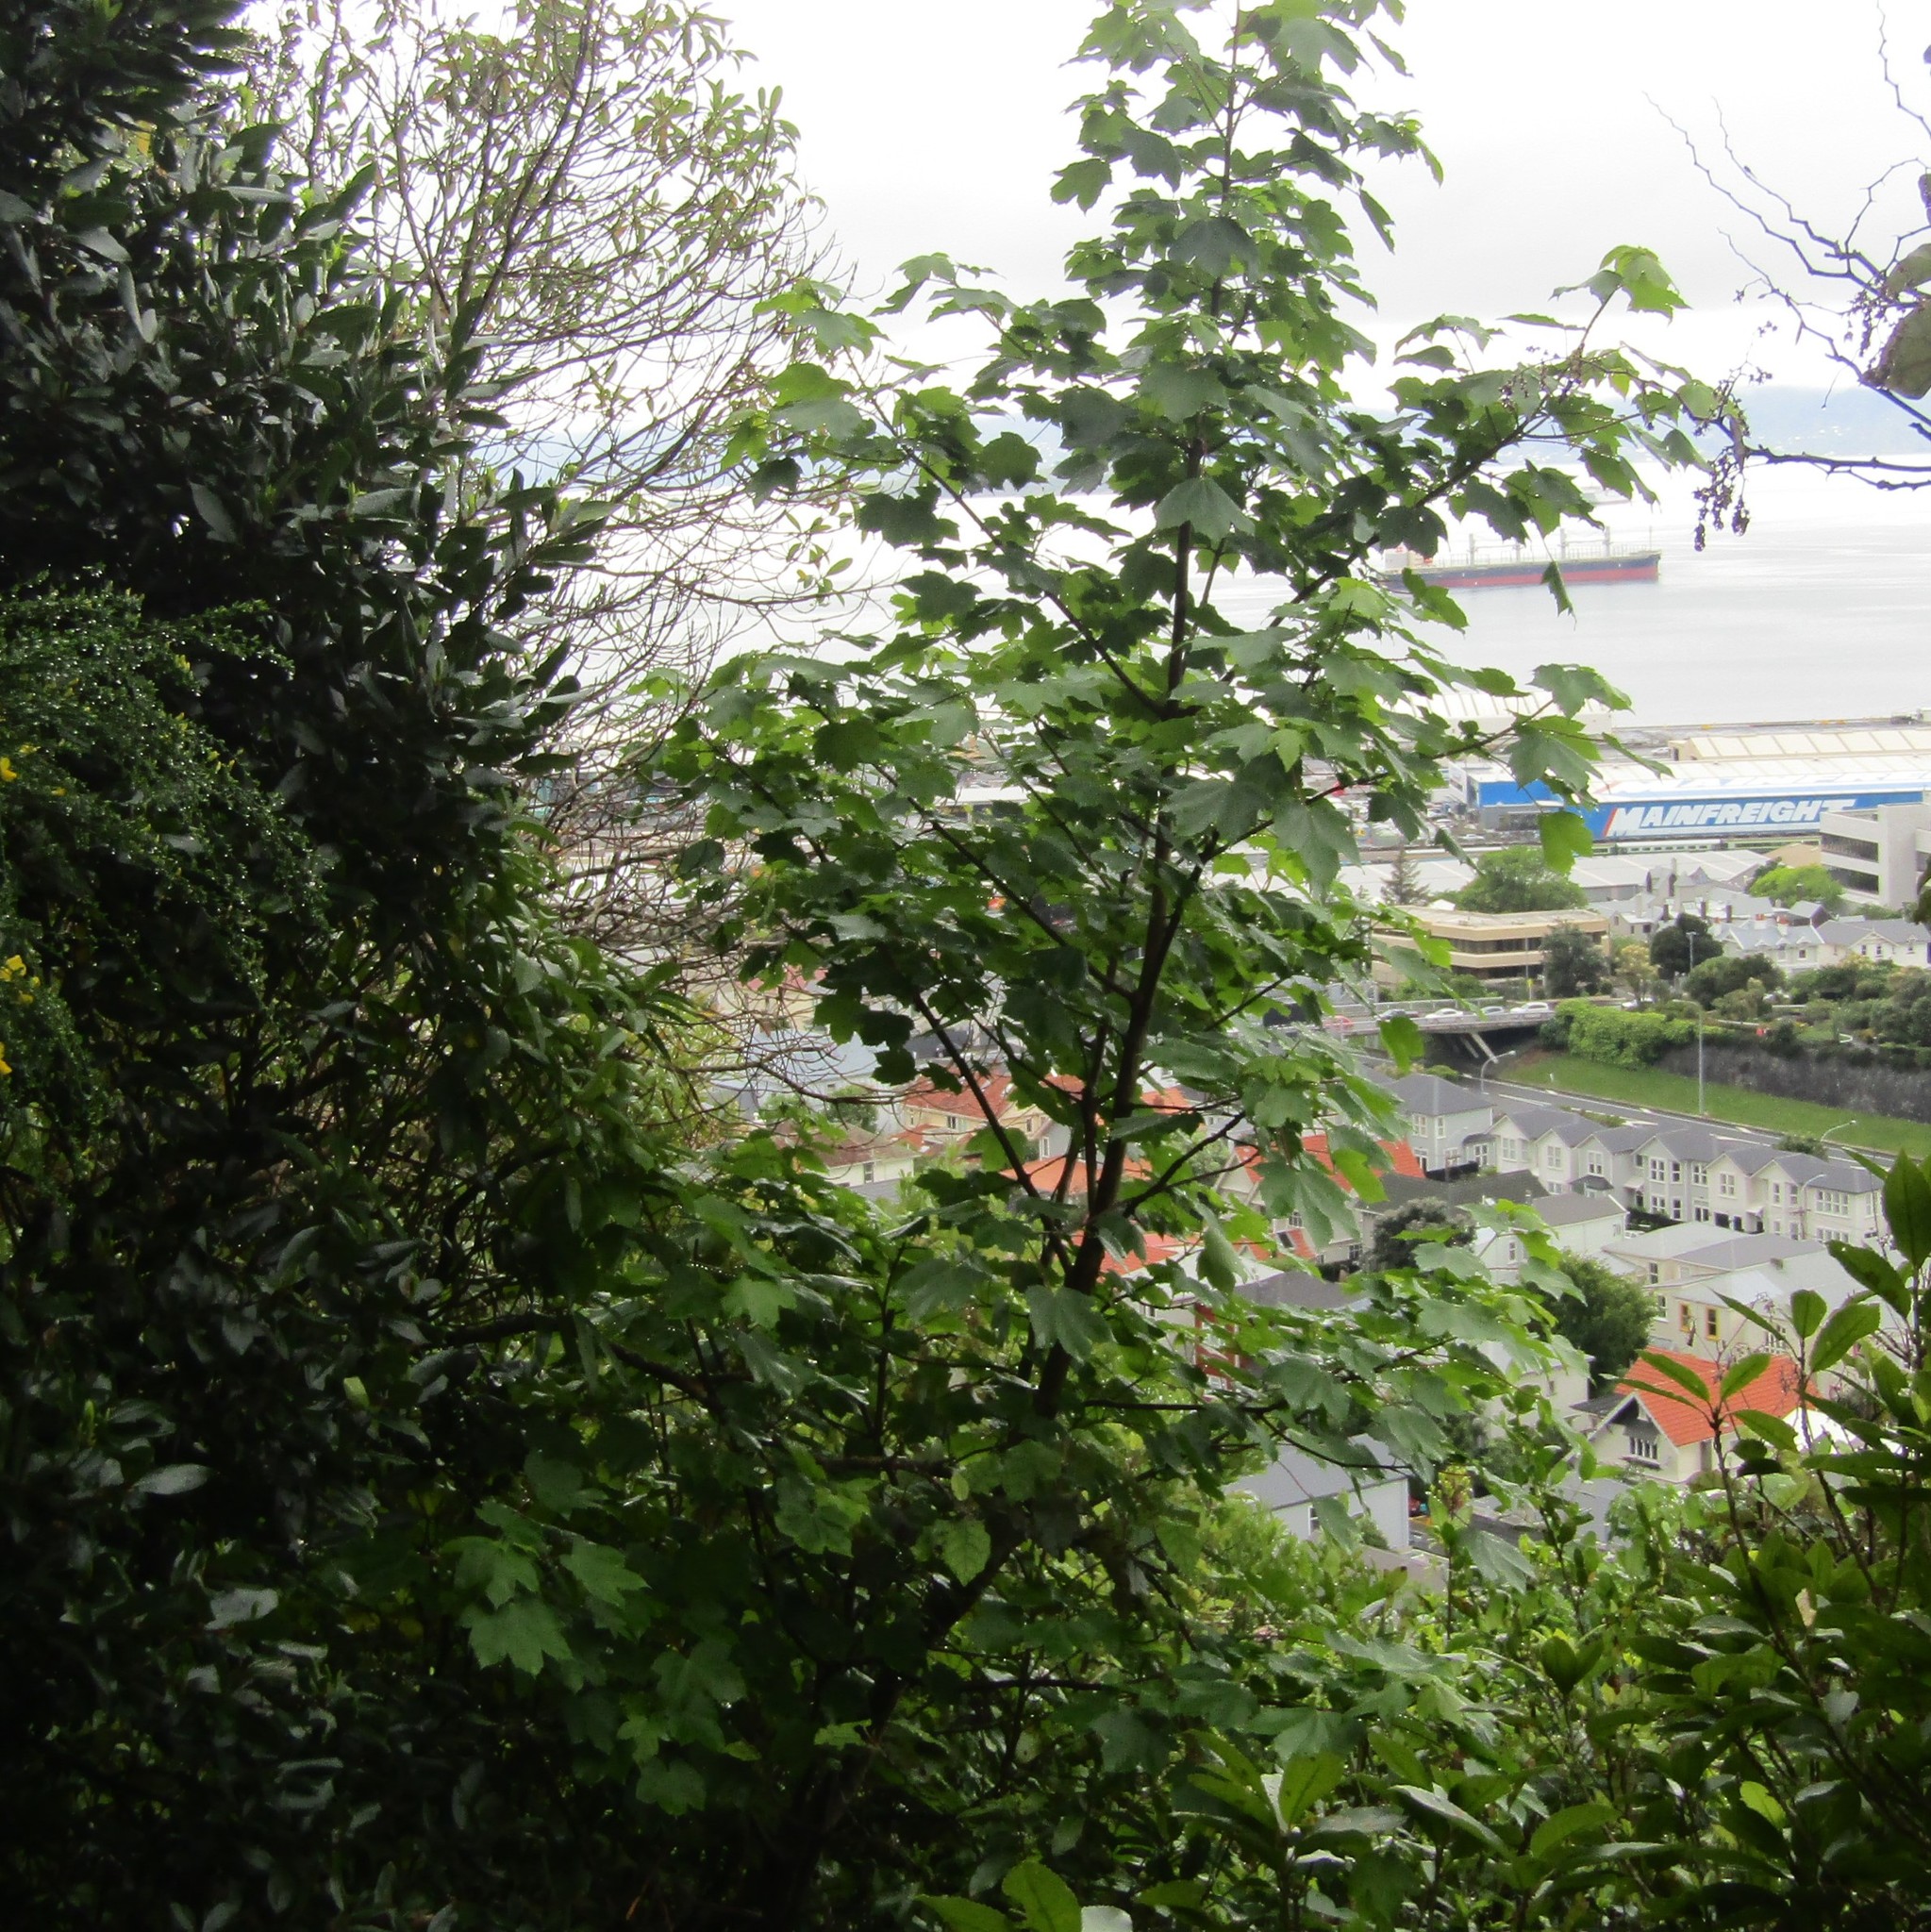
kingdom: Plantae
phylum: Tracheophyta
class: Magnoliopsida
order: Sapindales
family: Sapindaceae
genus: Acer
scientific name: Acer pseudoplatanus
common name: Sycamore
